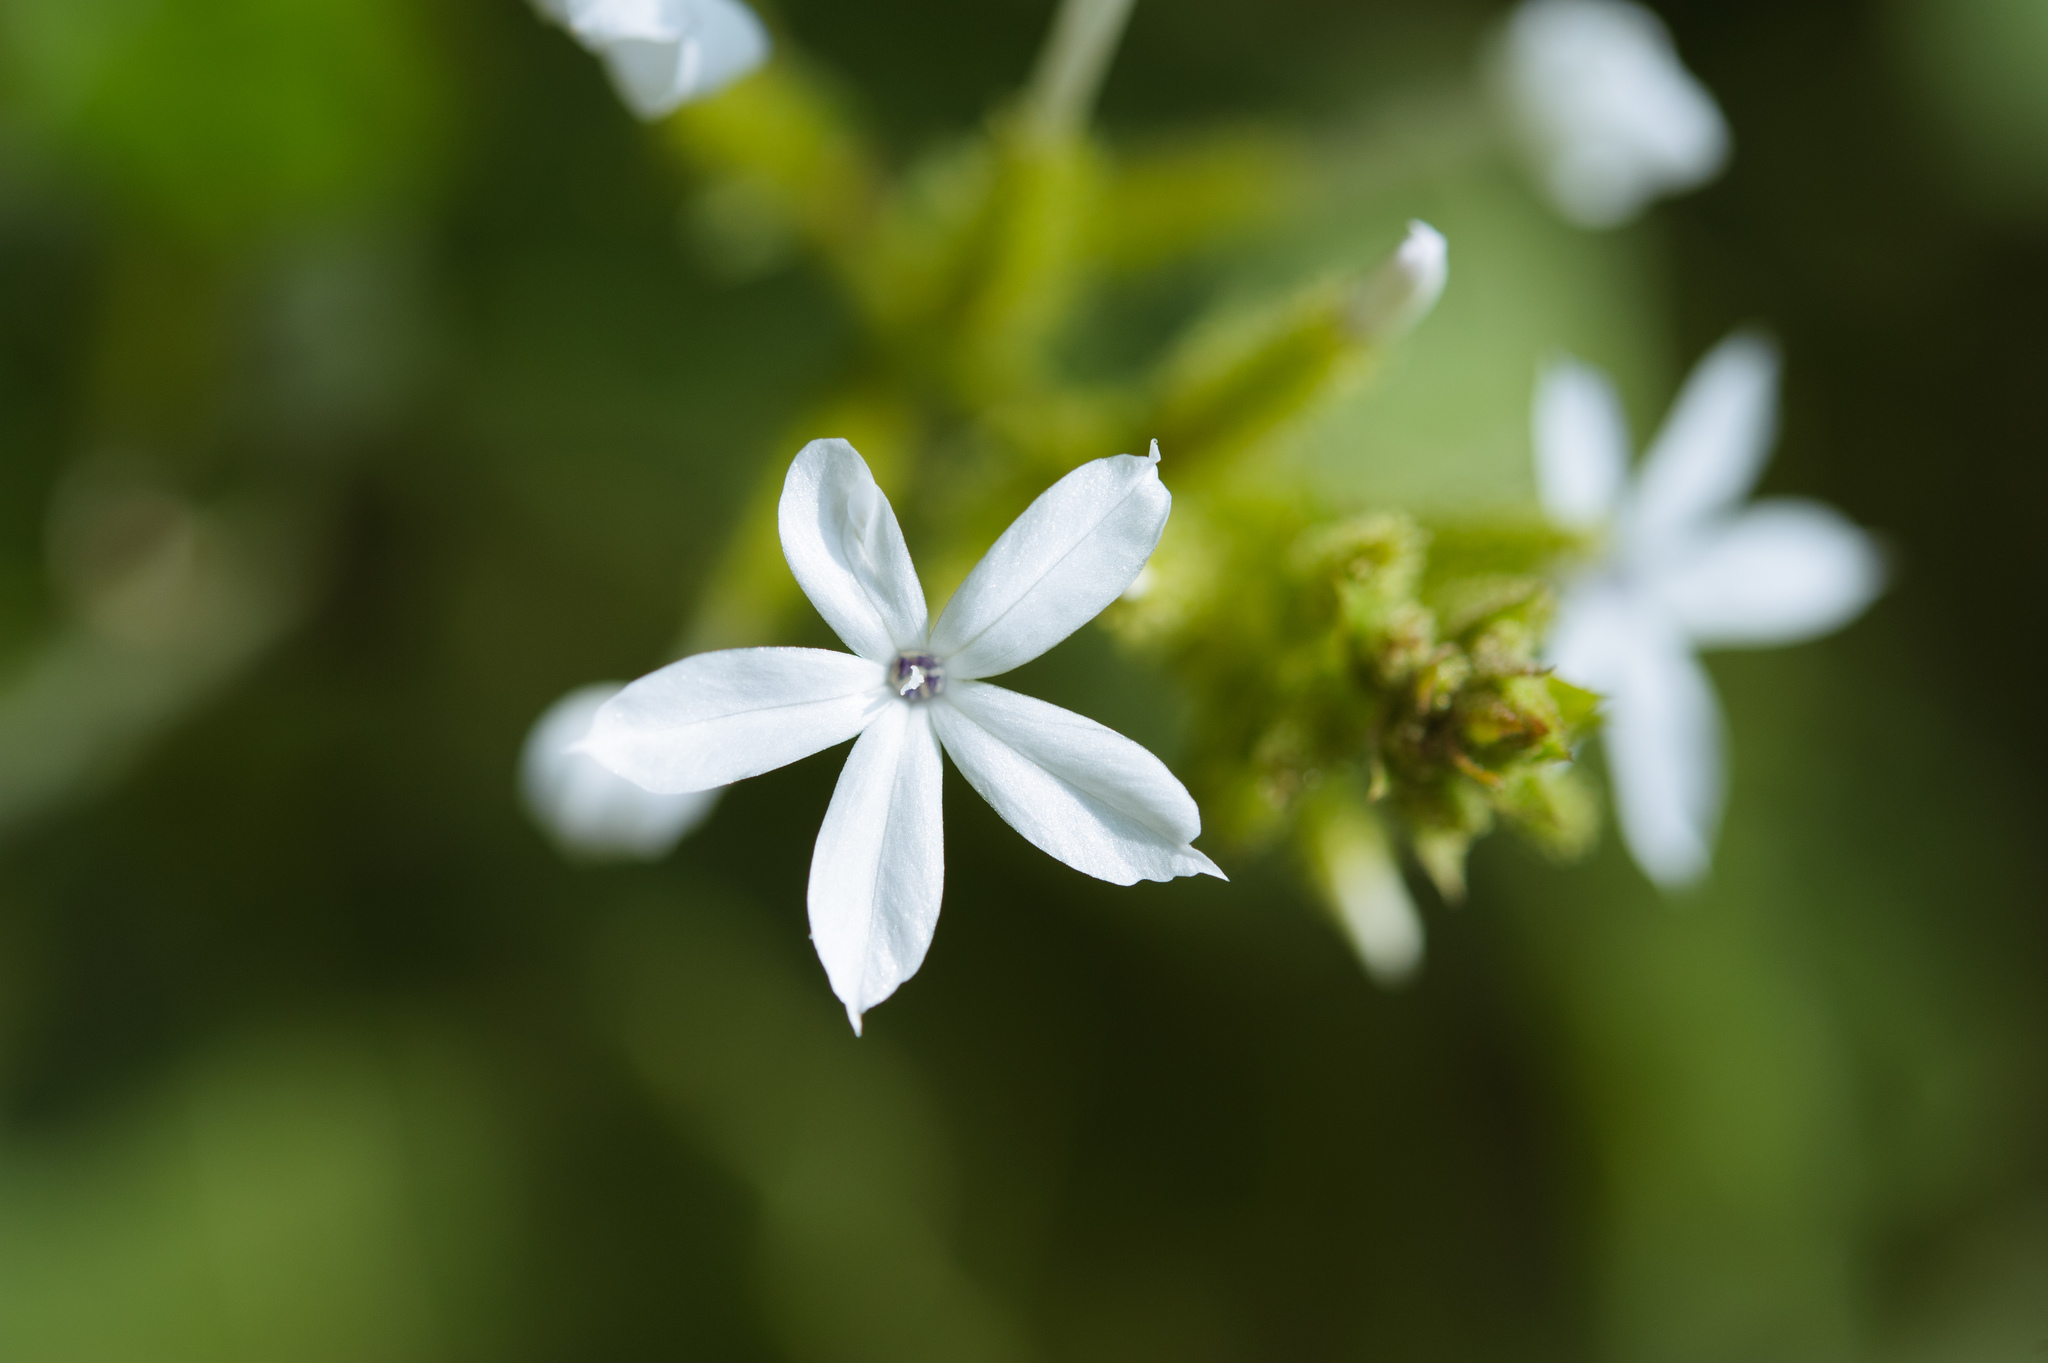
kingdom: Plantae
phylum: Tracheophyta
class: Magnoliopsida
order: Caryophyllales
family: Plumbaginaceae
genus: Plumbago
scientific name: Plumbago zeylanica
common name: Doctorbush
